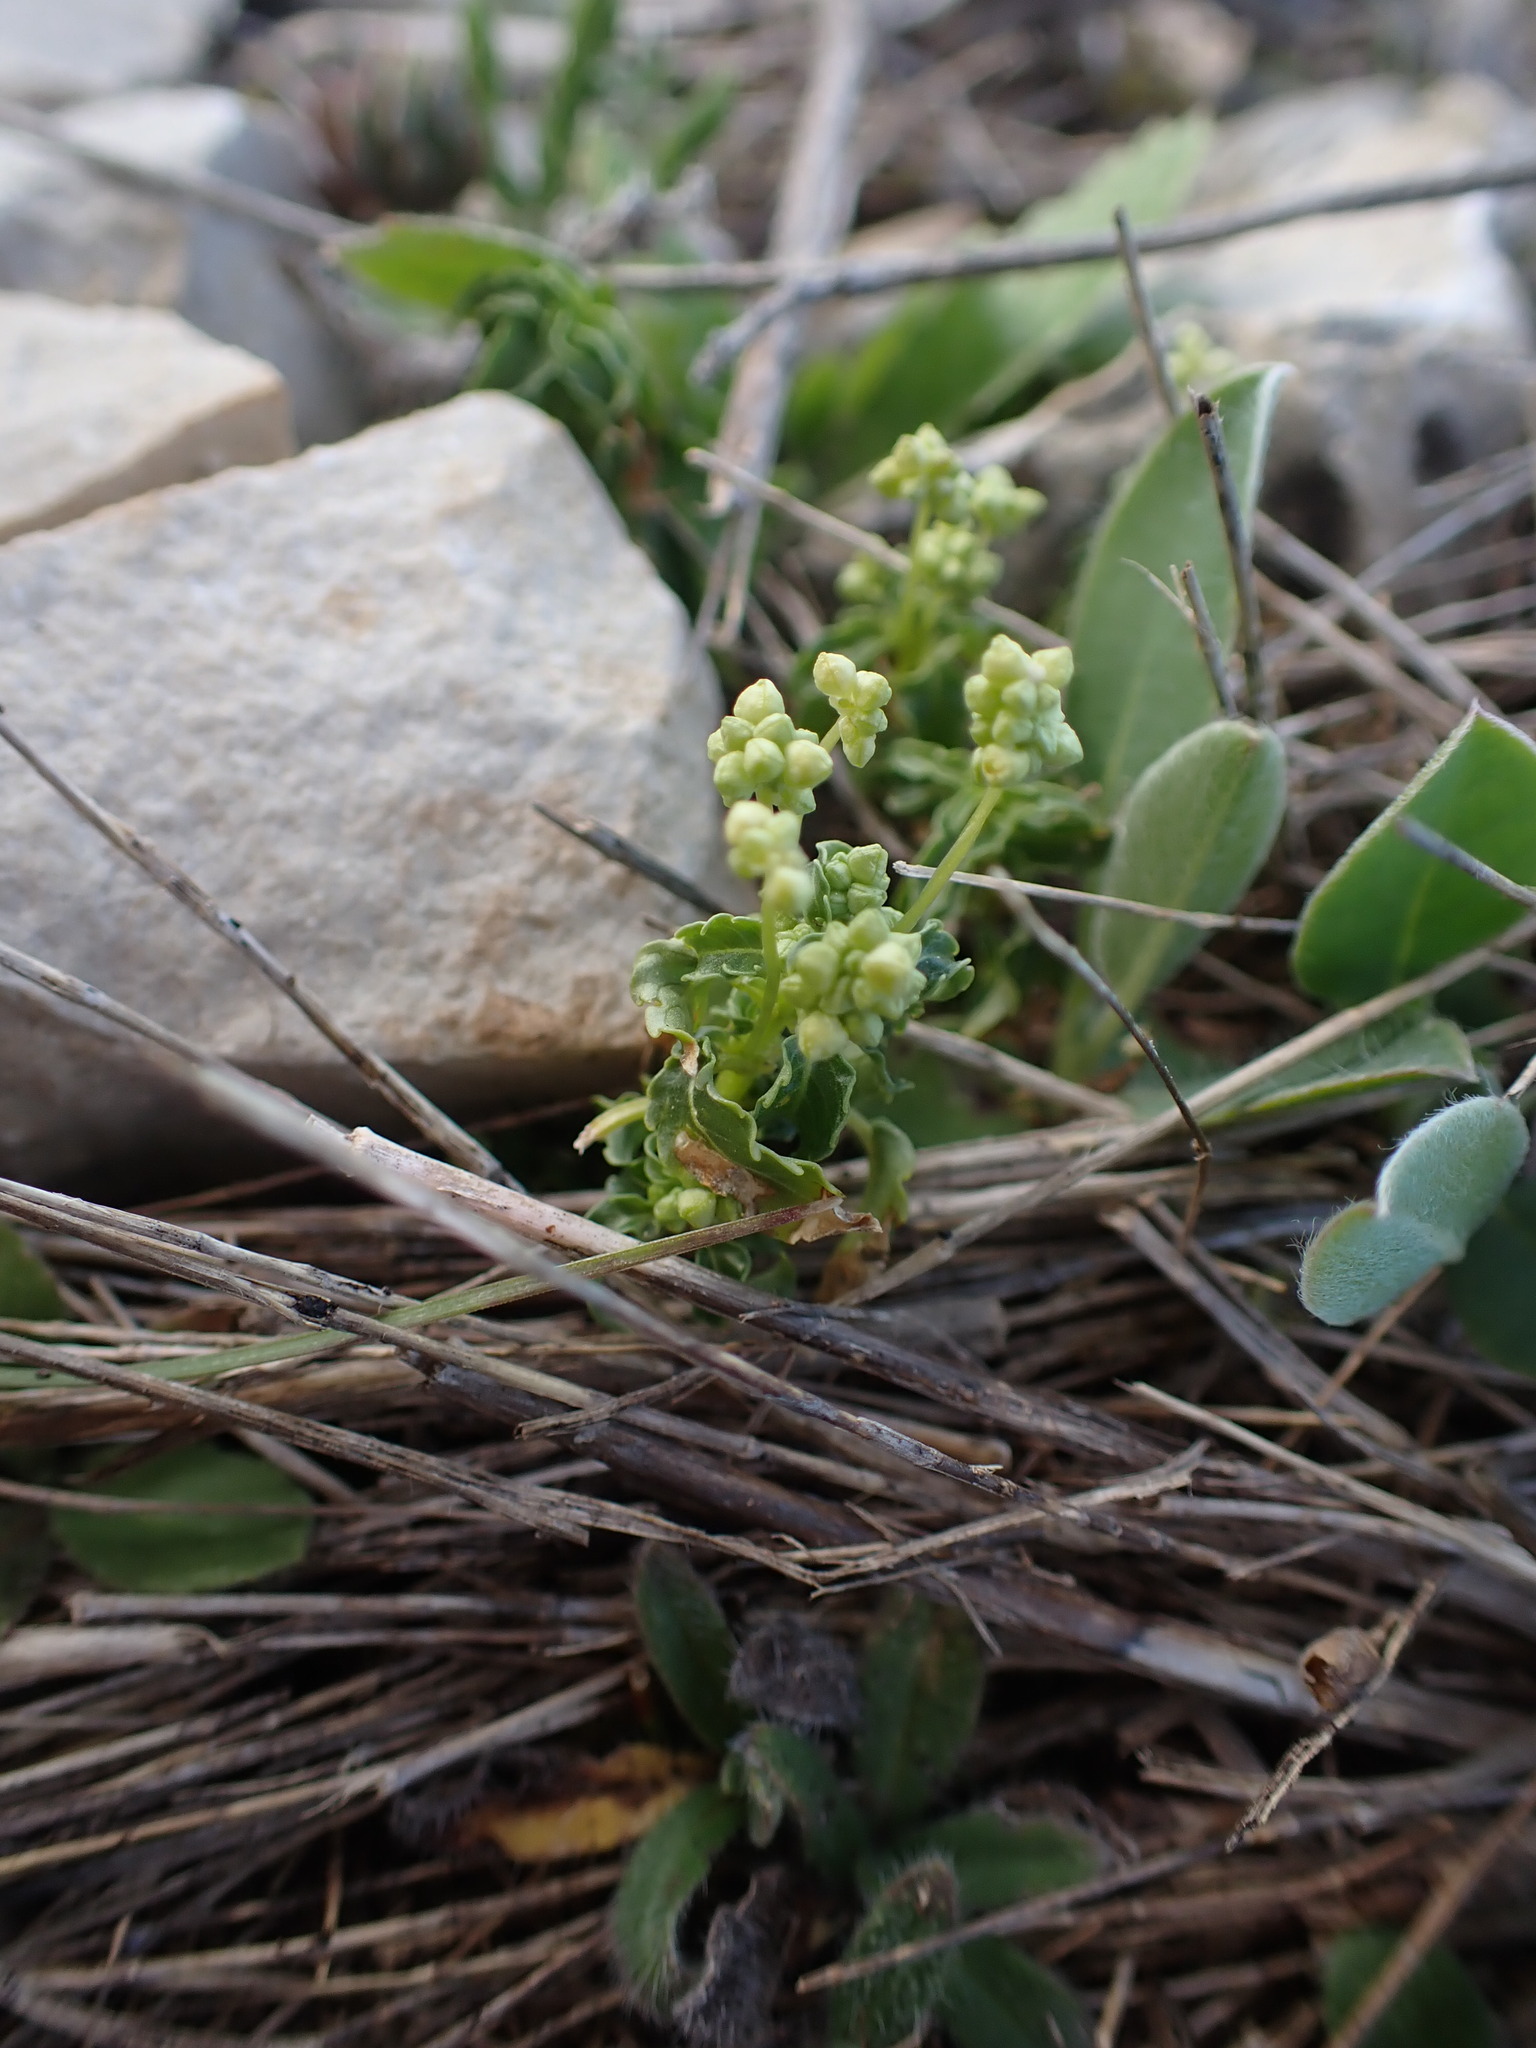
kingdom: Plantae
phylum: Tracheophyta
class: Magnoliopsida
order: Malpighiales
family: Euphorbiaceae
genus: Mercurialis
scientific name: Mercurialis annua
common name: Annual mercury
